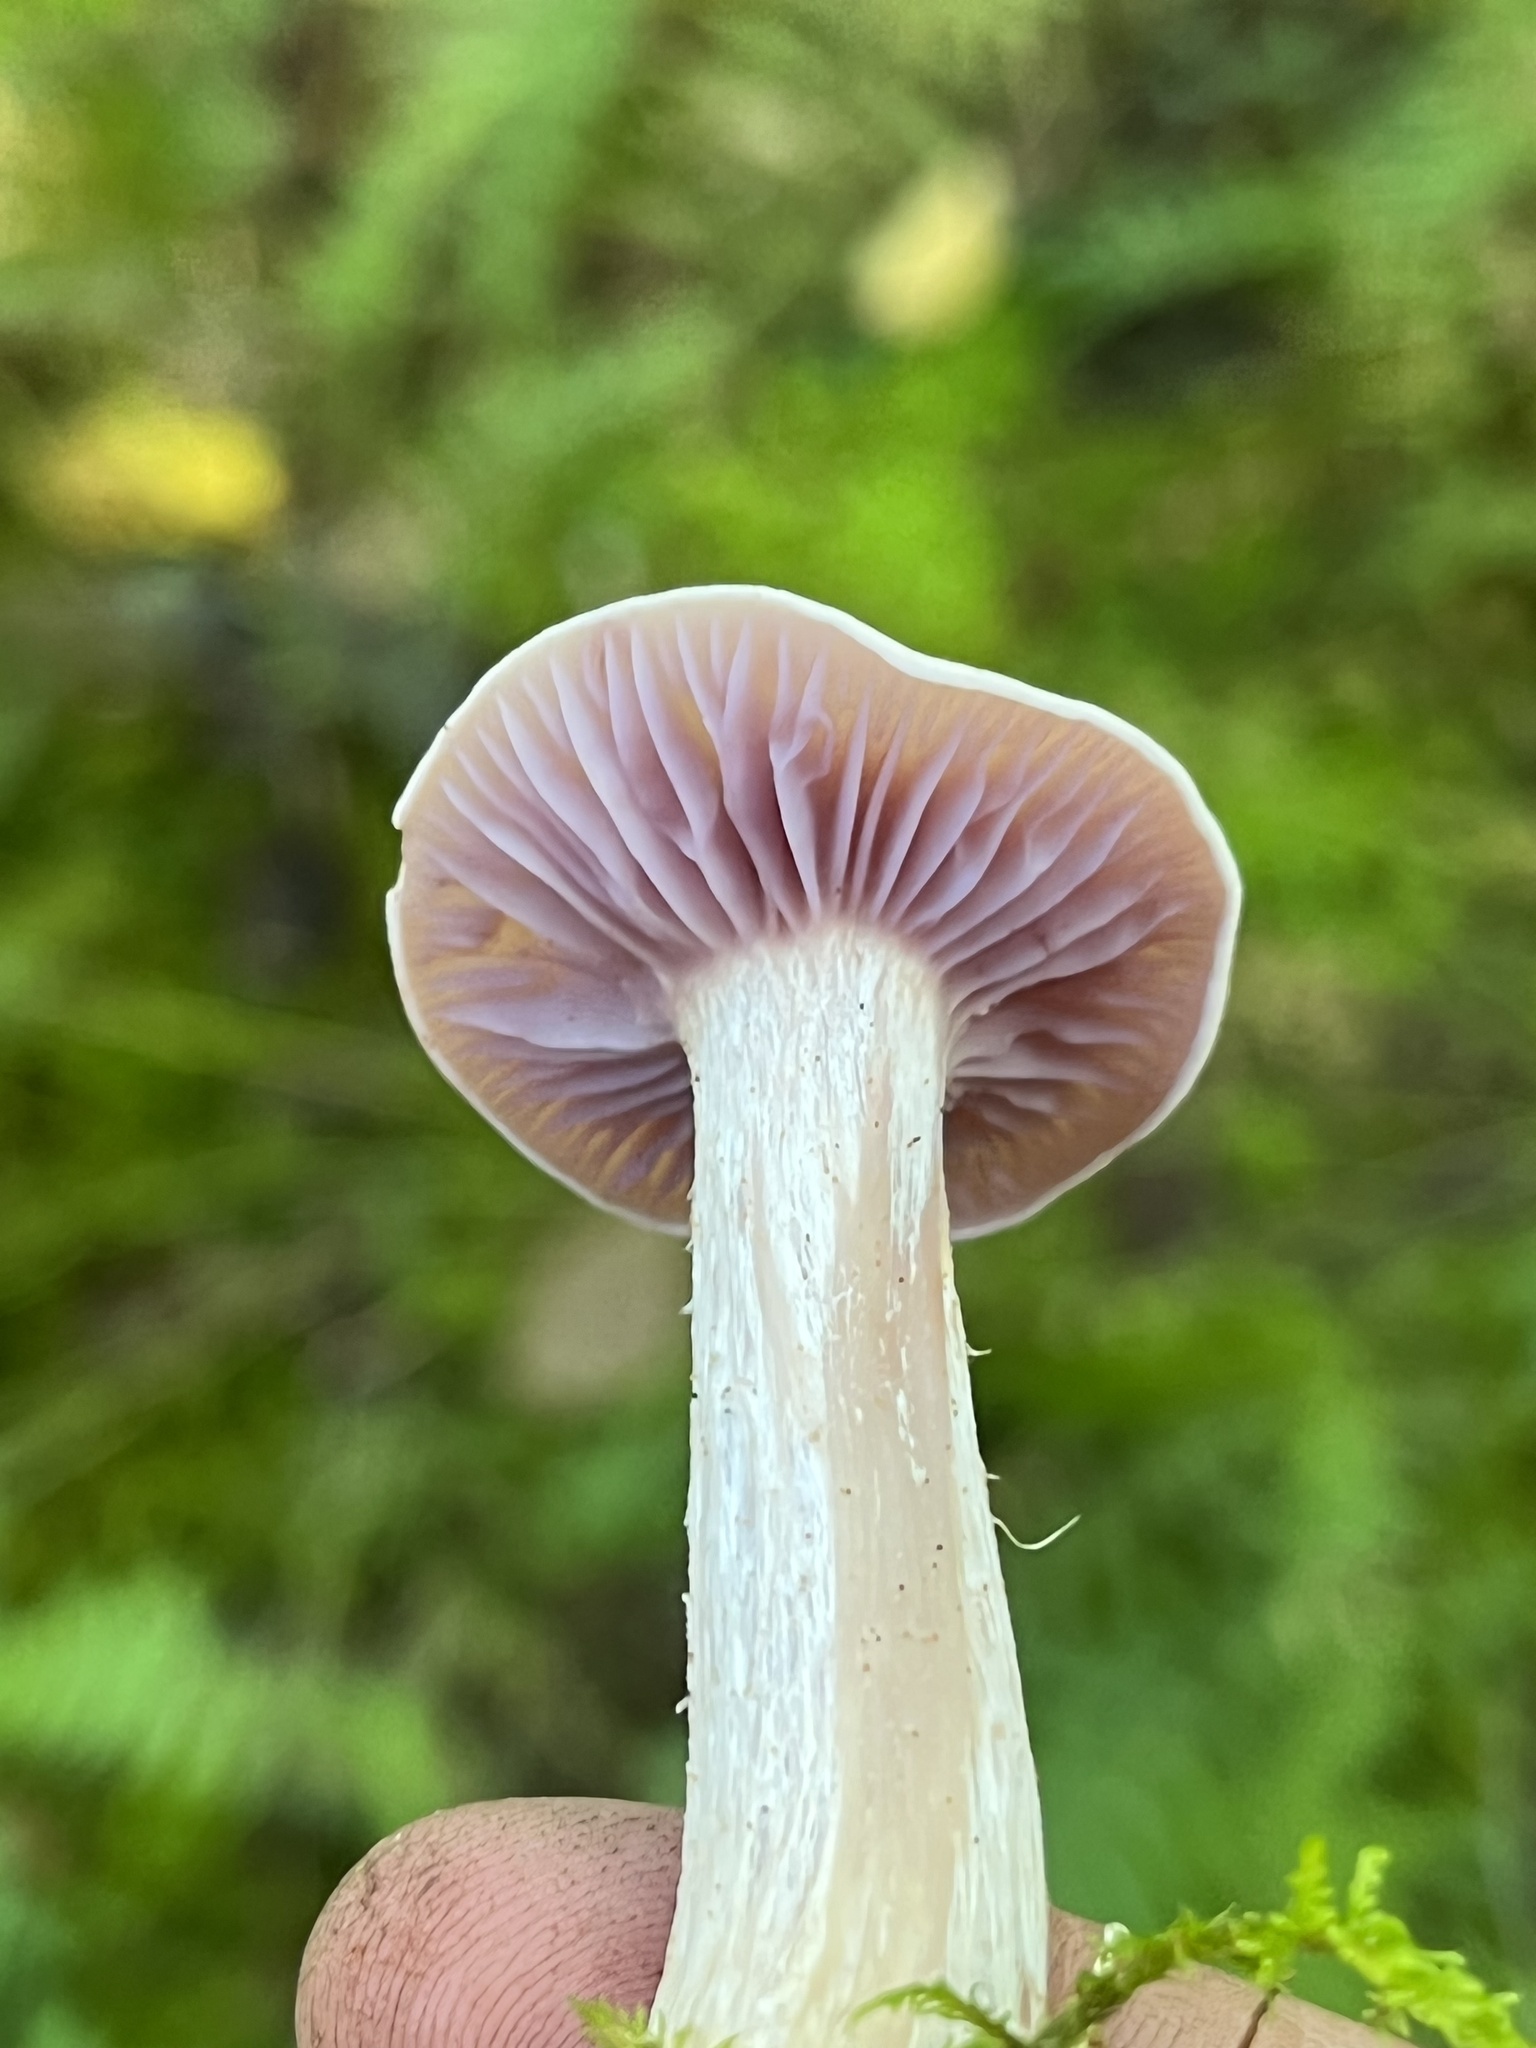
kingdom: Fungi
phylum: Basidiomycota
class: Agaricomycetes
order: Agaricales
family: Hydnangiaceae
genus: Laccaria
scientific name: Laccaria ochropurpurea
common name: Purple laccaria
